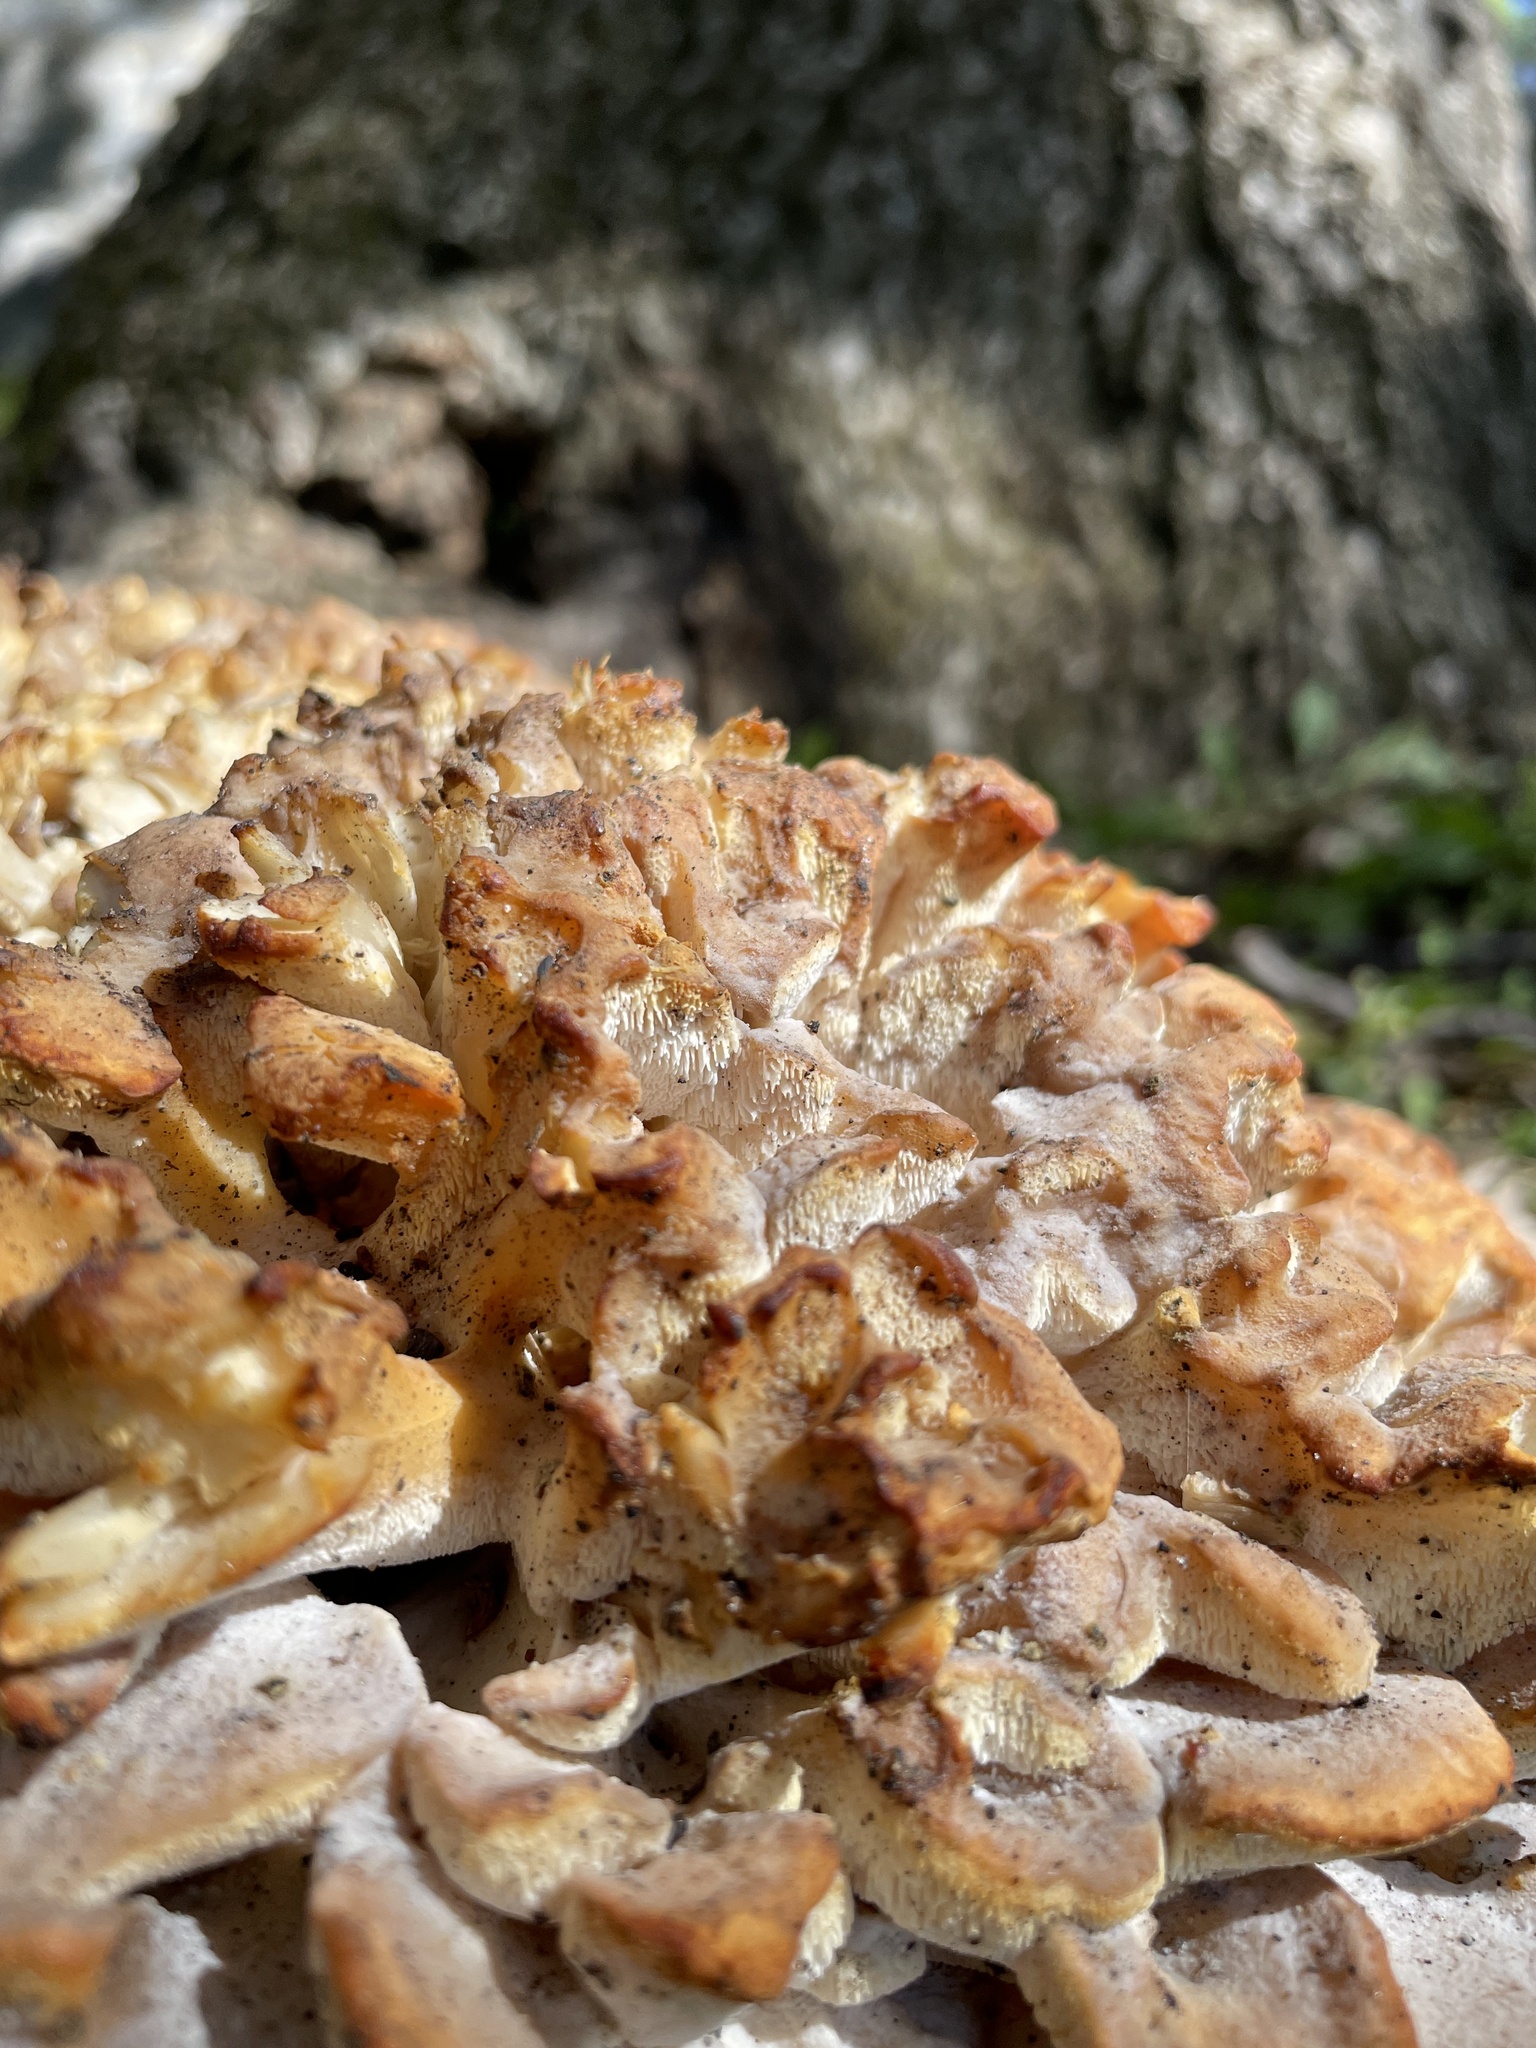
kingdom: Fungi
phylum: Basidiomycota
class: Agaricomycetes
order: Polyporales
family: Grifolaceae
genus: Grifola
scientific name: Grifola frondosa
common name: Hen of the woods
